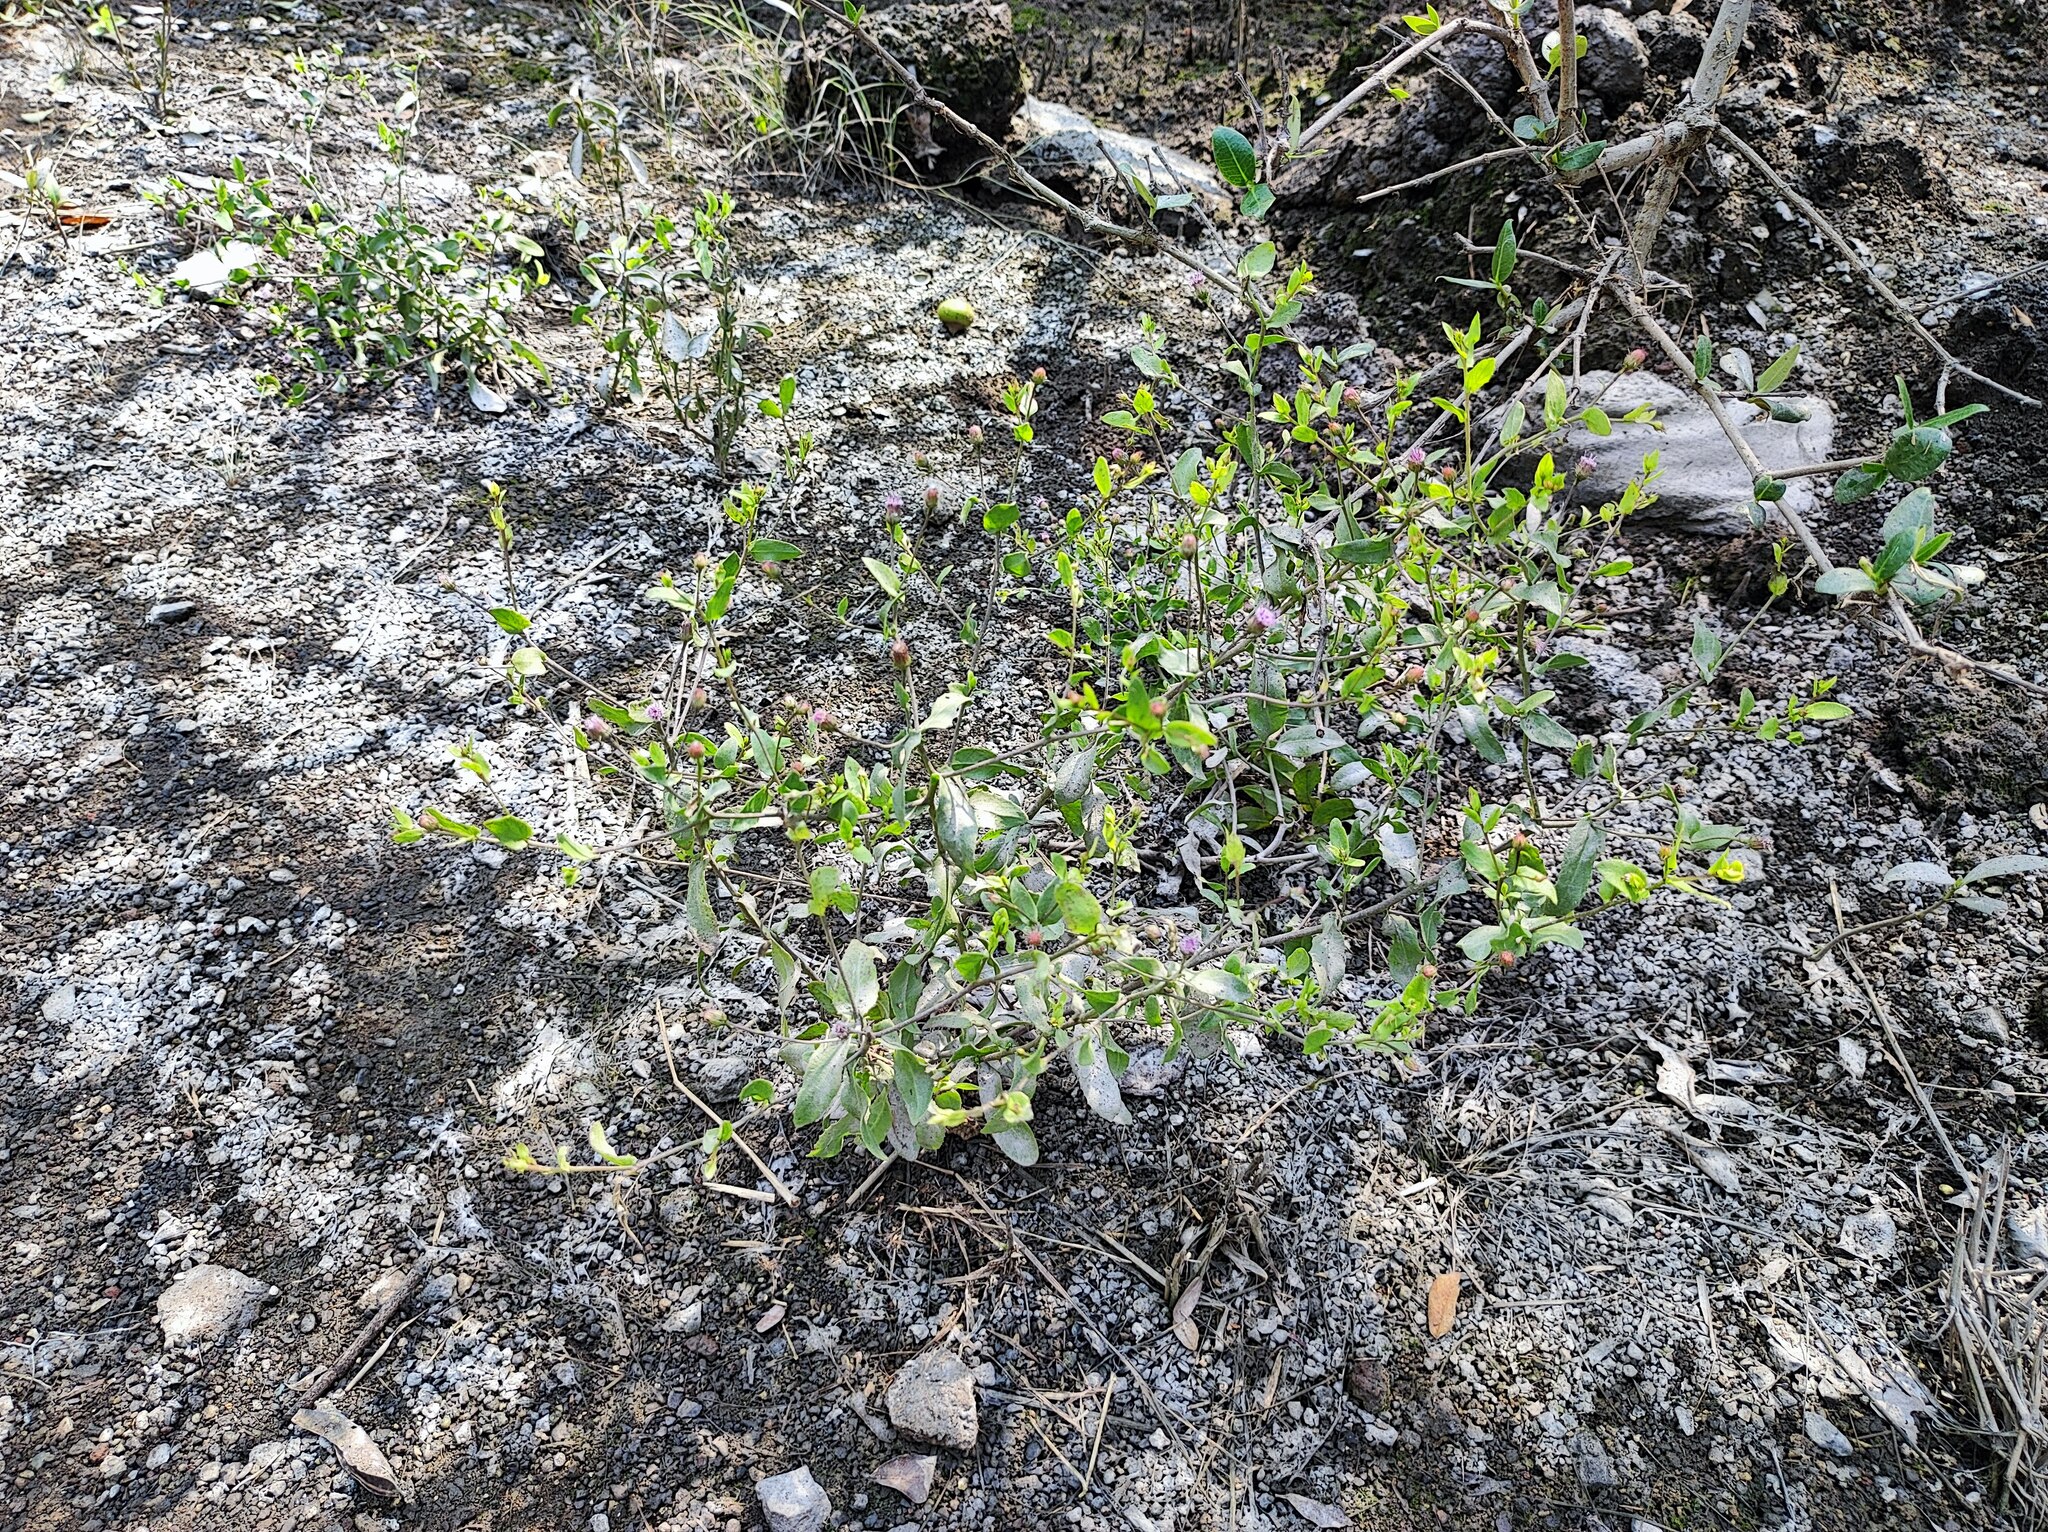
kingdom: Plantae
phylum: Tracheophyta
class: Magnoliopsida
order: Asterales
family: Asteraceae
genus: Blumea
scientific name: Blumea obliqua
